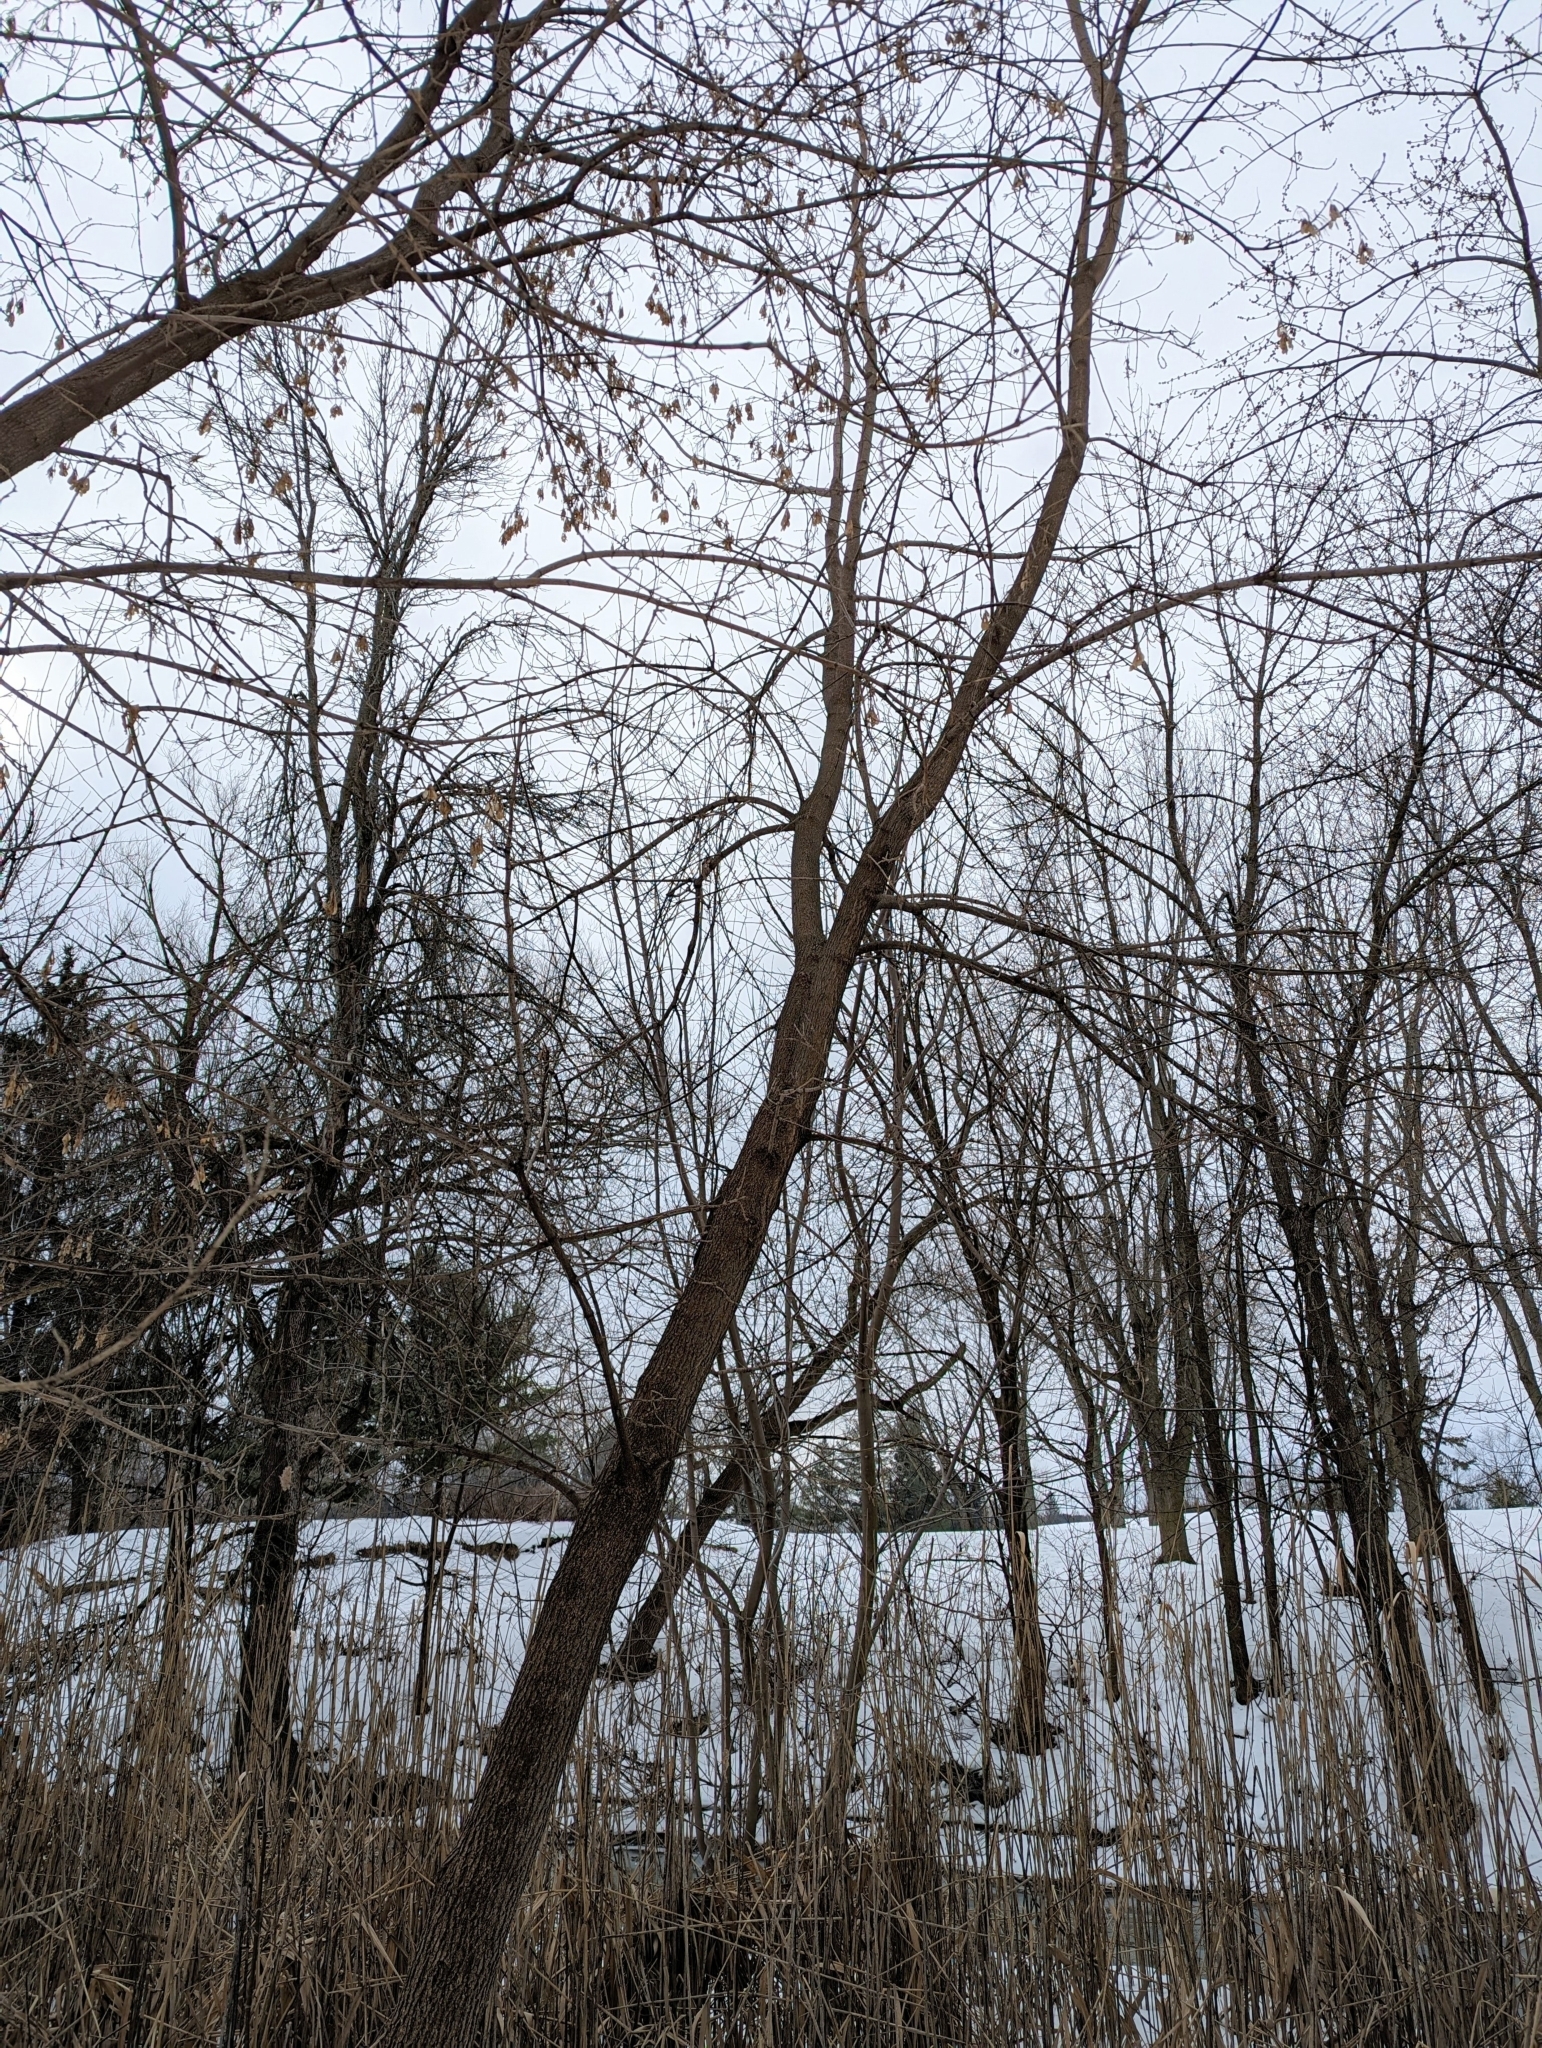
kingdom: Plantae
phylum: Tracheophyta
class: Magnoliopsida
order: Sapindales
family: Sapindaceae
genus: Acer
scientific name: Acer negundo
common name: Ashleaf maple
